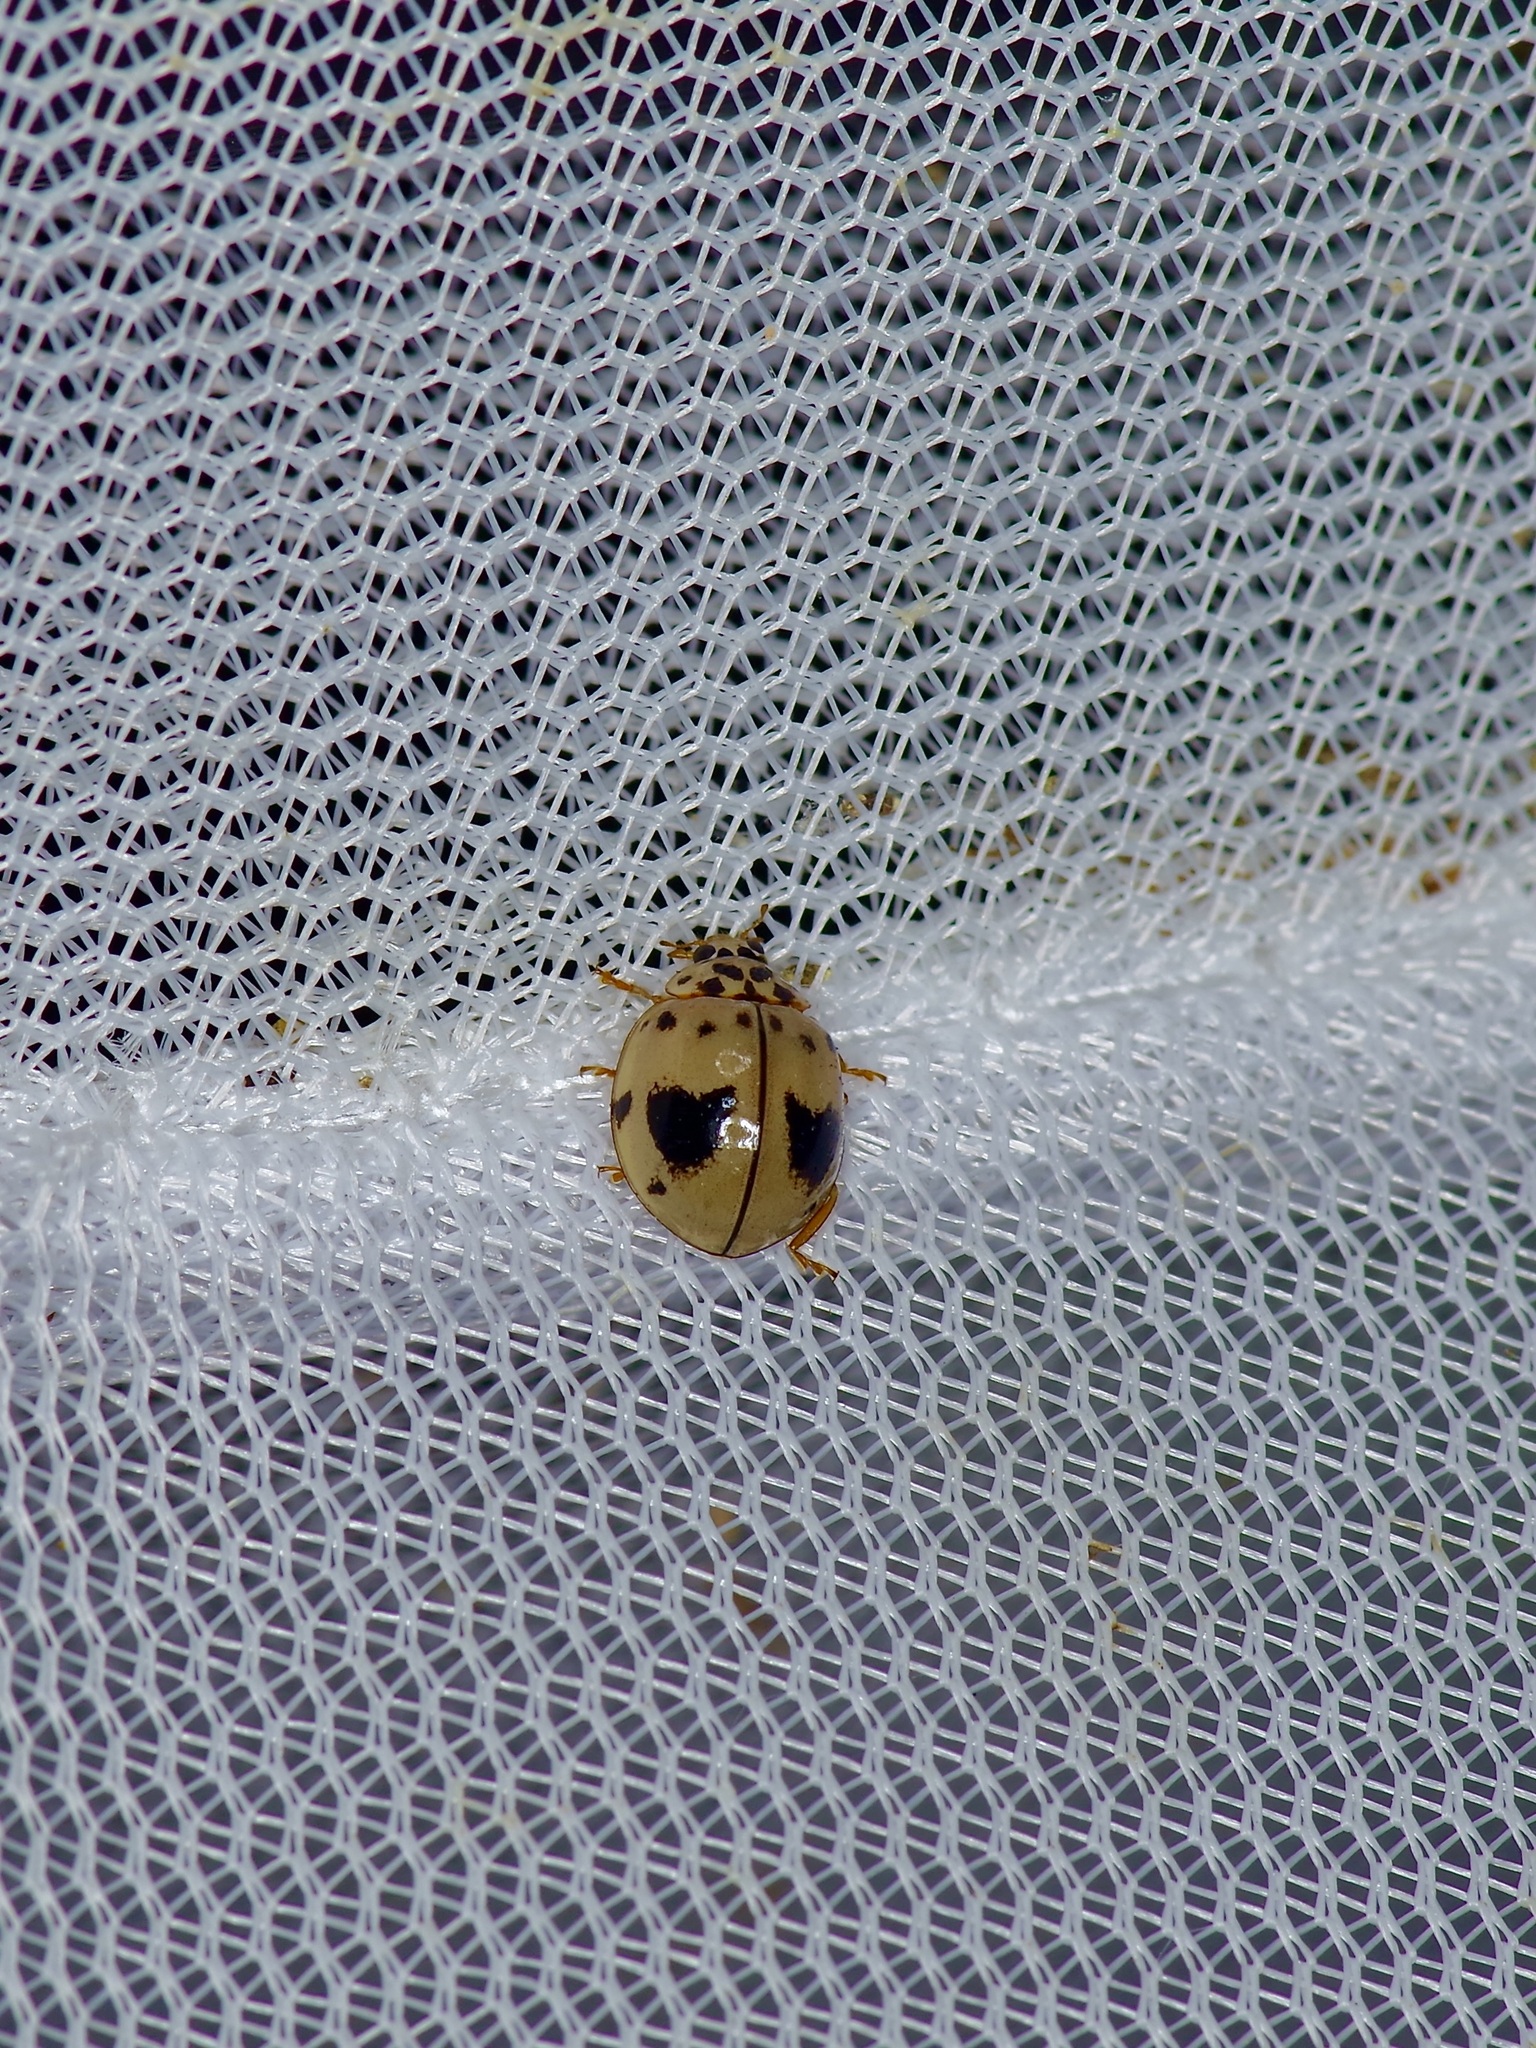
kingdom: Animalia
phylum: Arthropoda
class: Insecta
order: Coleoptera
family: Coccinellidae
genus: Olla
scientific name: Olla v-nigrum
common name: Ashy gray lady beetle
